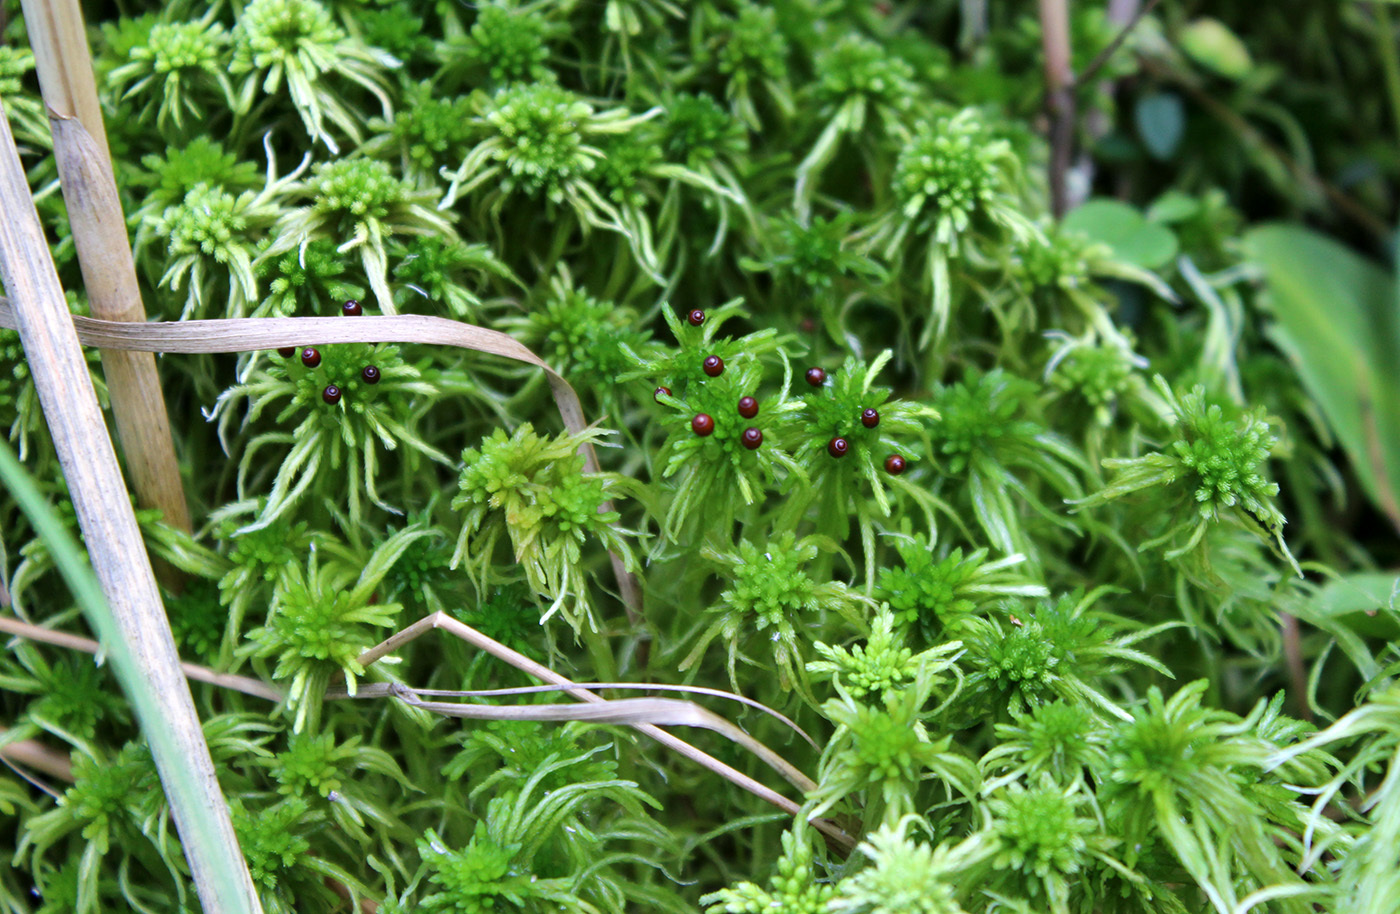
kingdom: Plantae
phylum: Bryophyta
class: Sphagnopsida
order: Sphagnales
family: Sphagnaceae
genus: Sphagnum
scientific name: Sphagnum angustifolium
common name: Narrow-leaved peat moss
